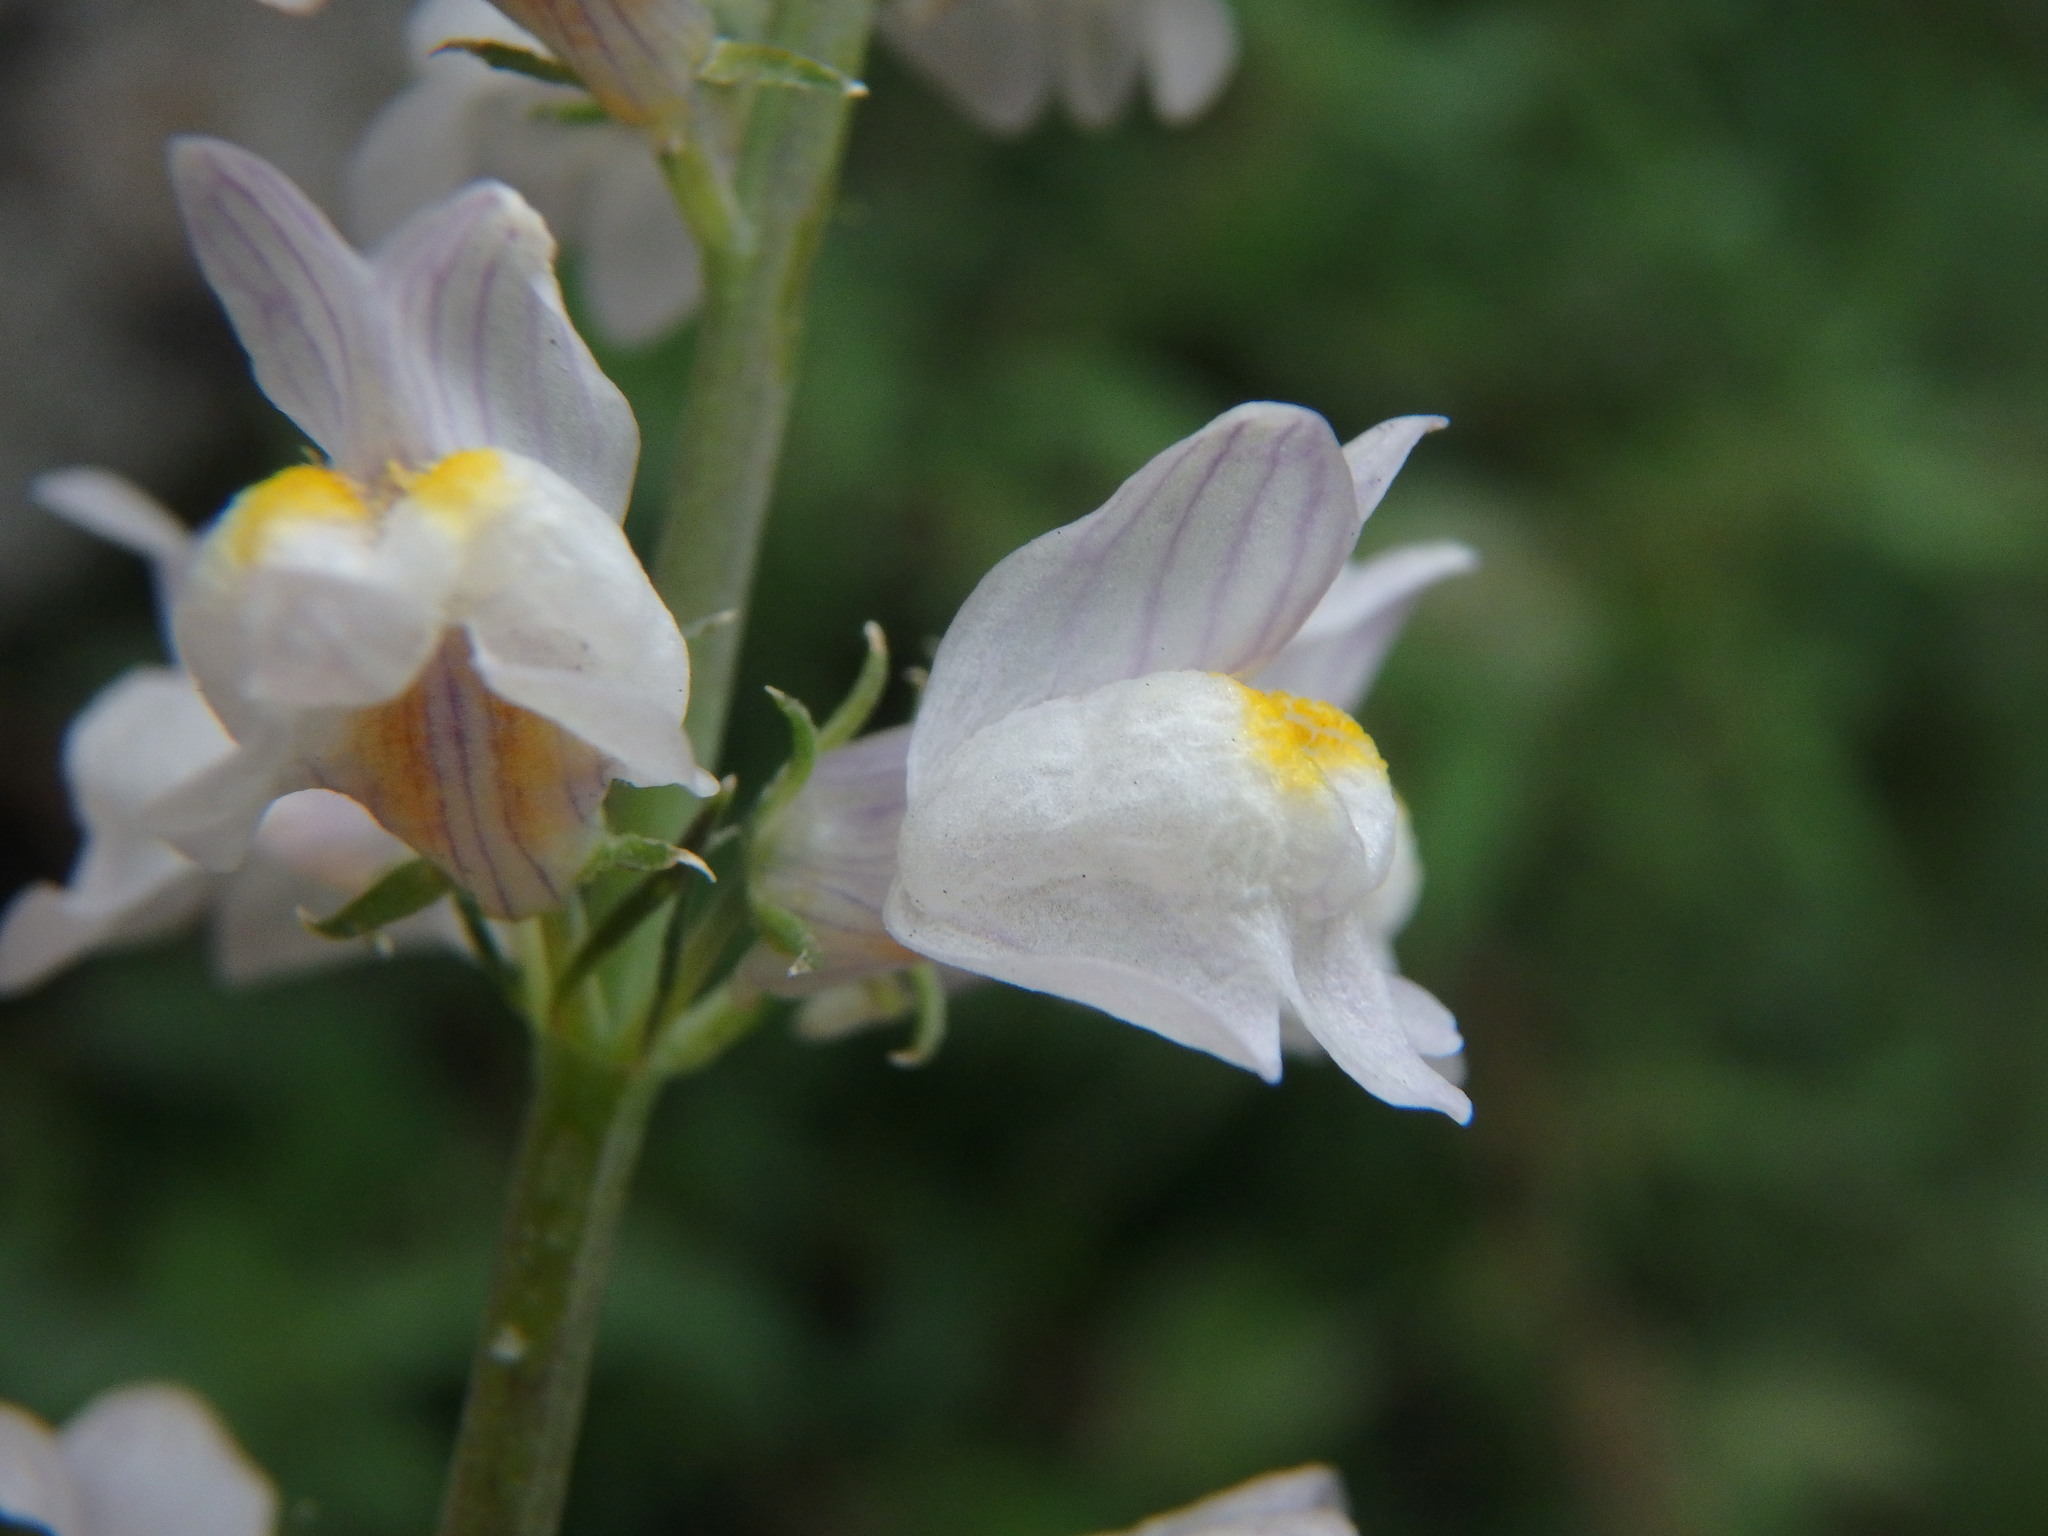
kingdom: Plantae
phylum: Tracheophyta
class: Magnoliopsida
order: Lamiales
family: Plantaginaceae
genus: Linaria
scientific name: Linaria repens
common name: Pale toadflax
